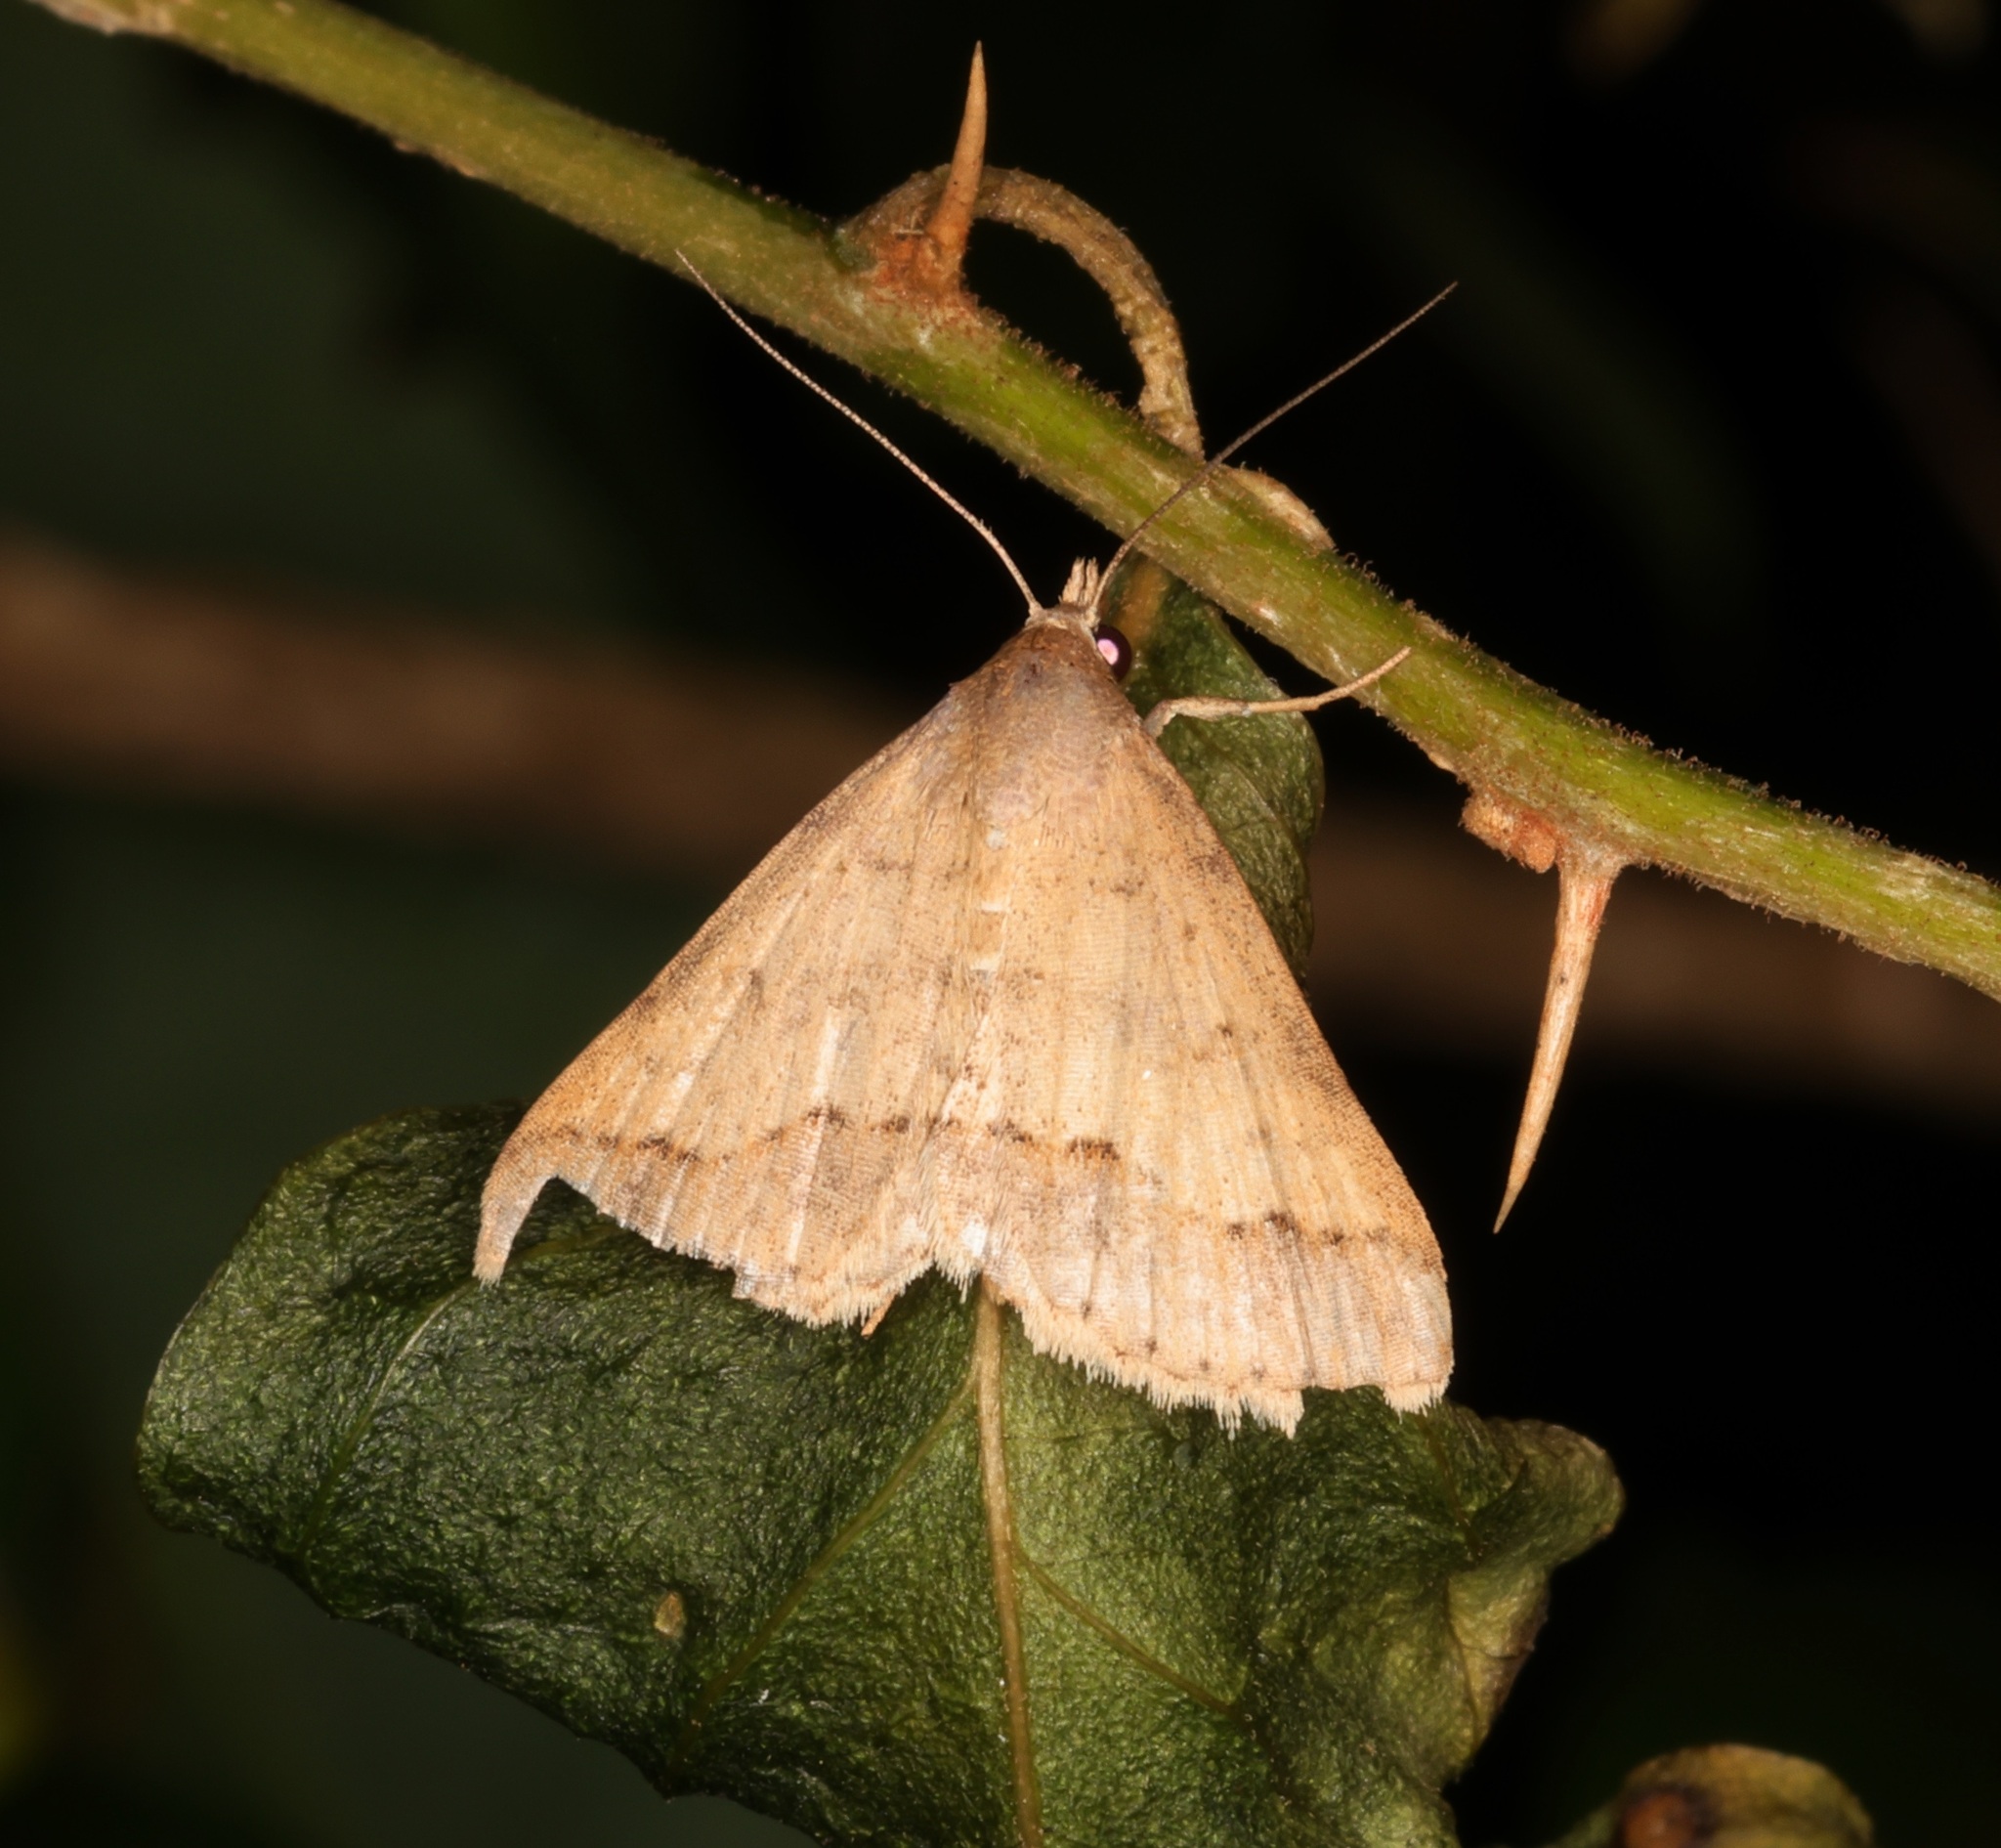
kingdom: Animalia
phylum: Arthropoda
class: Insecta
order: Lepidoptera
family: Erebidae
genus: Gesonia
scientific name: Gesonia obeditalis
